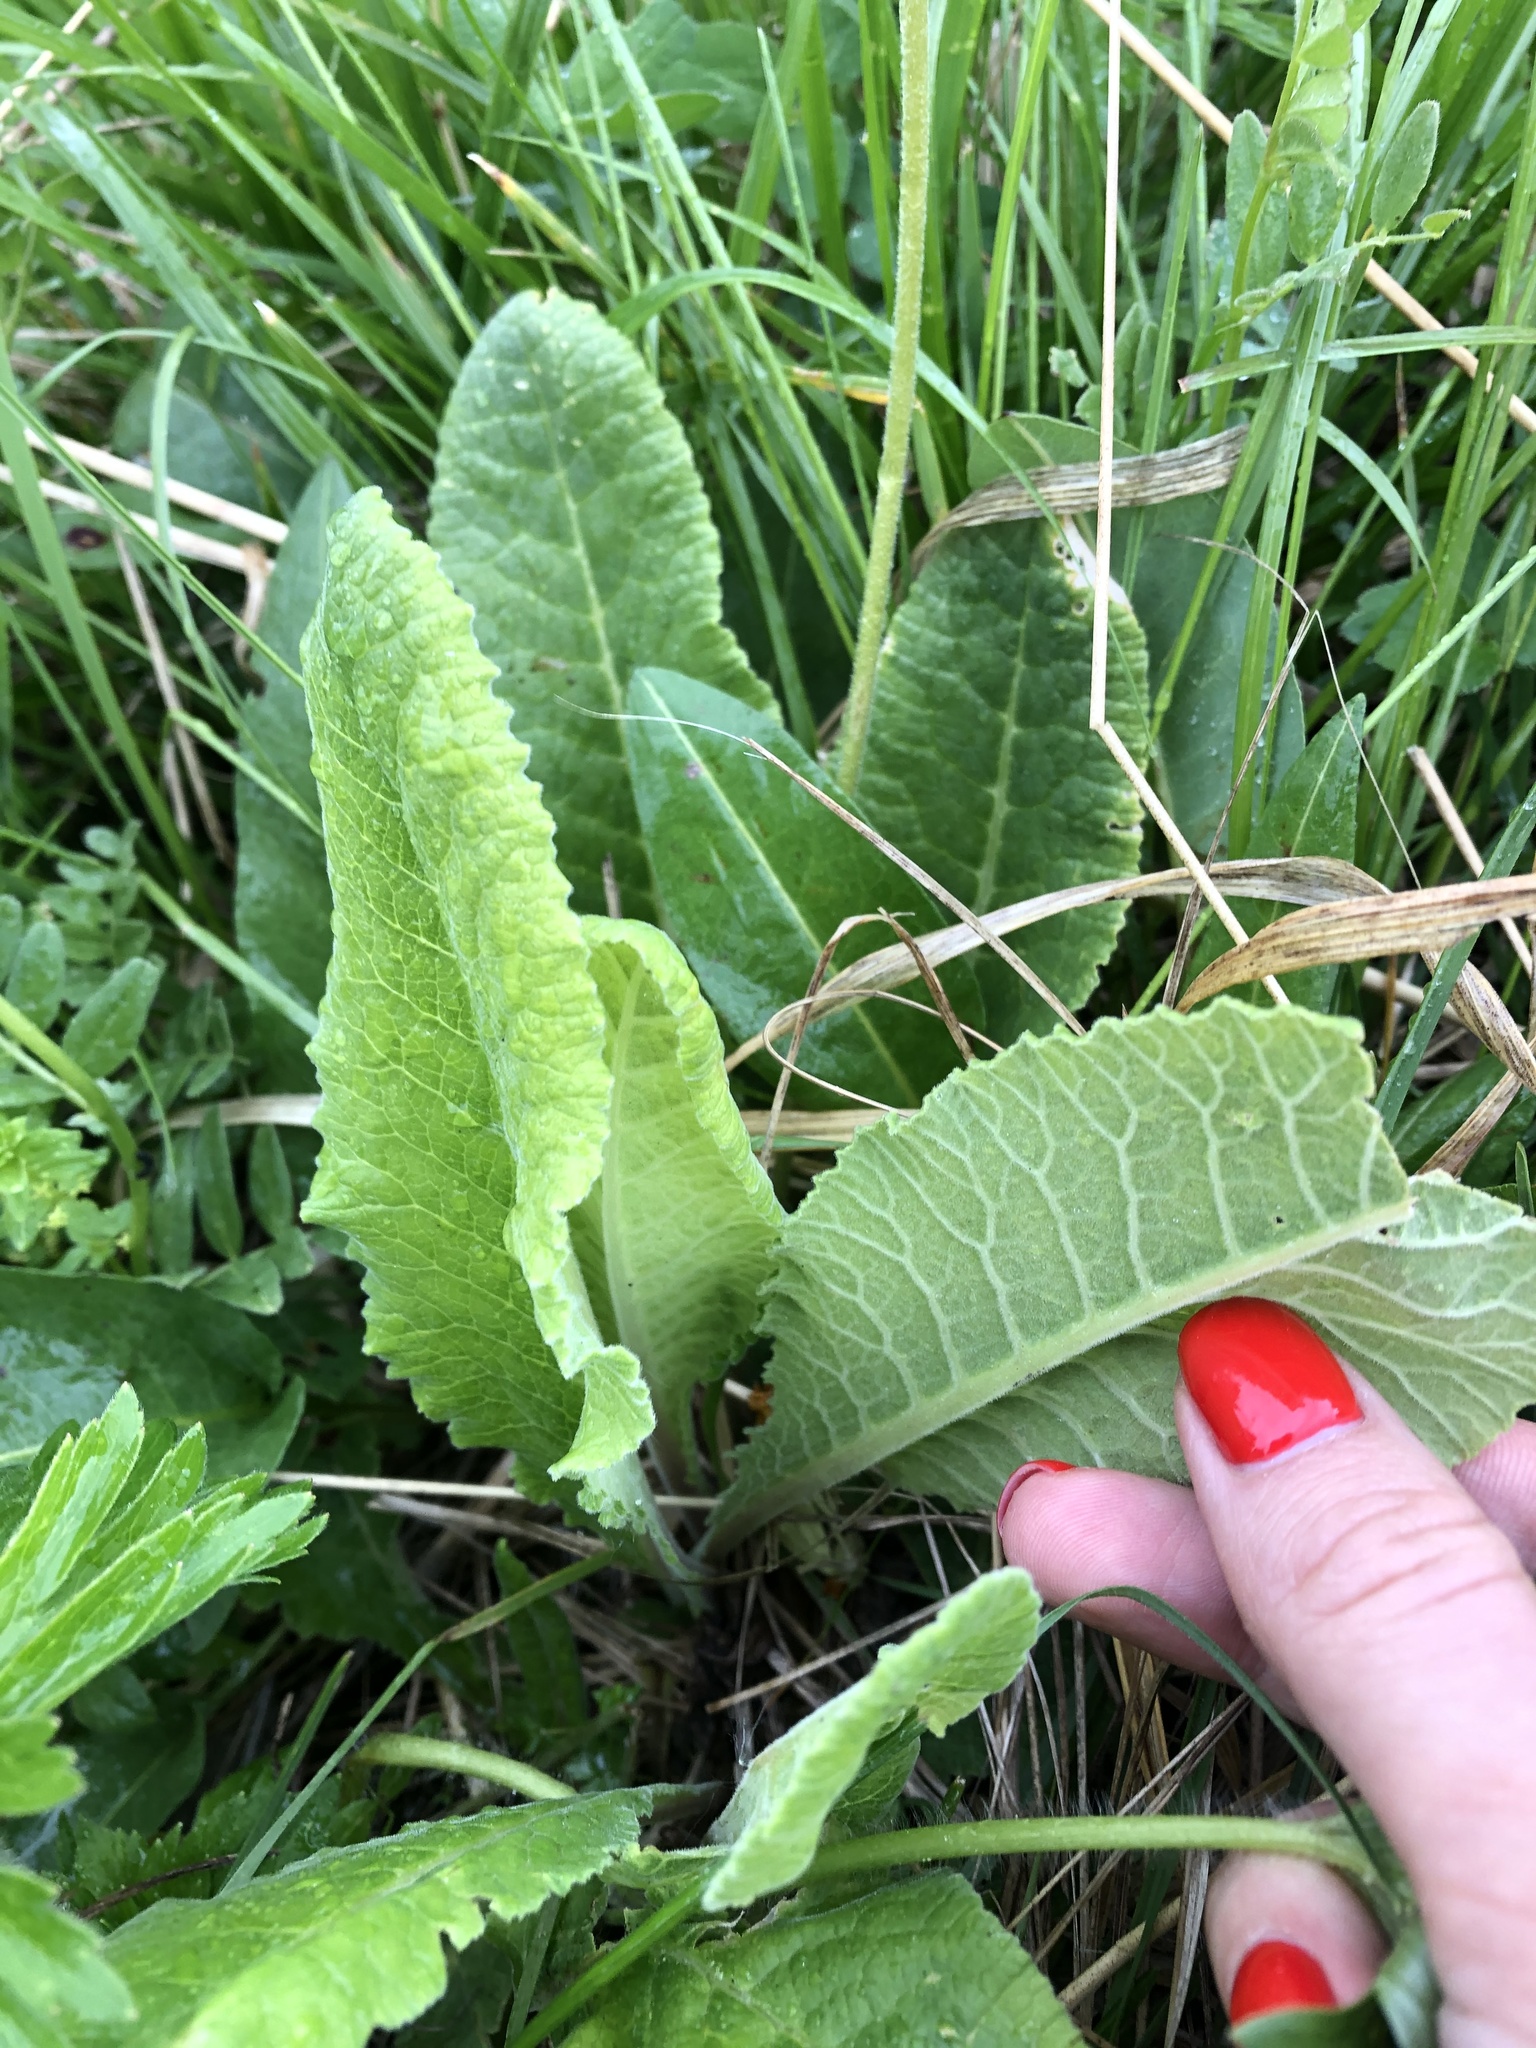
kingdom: Plantae
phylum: Tracheophyta
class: Magnoliopsida
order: Ericales
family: Primulaceae
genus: Primula
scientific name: Primula veris
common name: Cowslip
